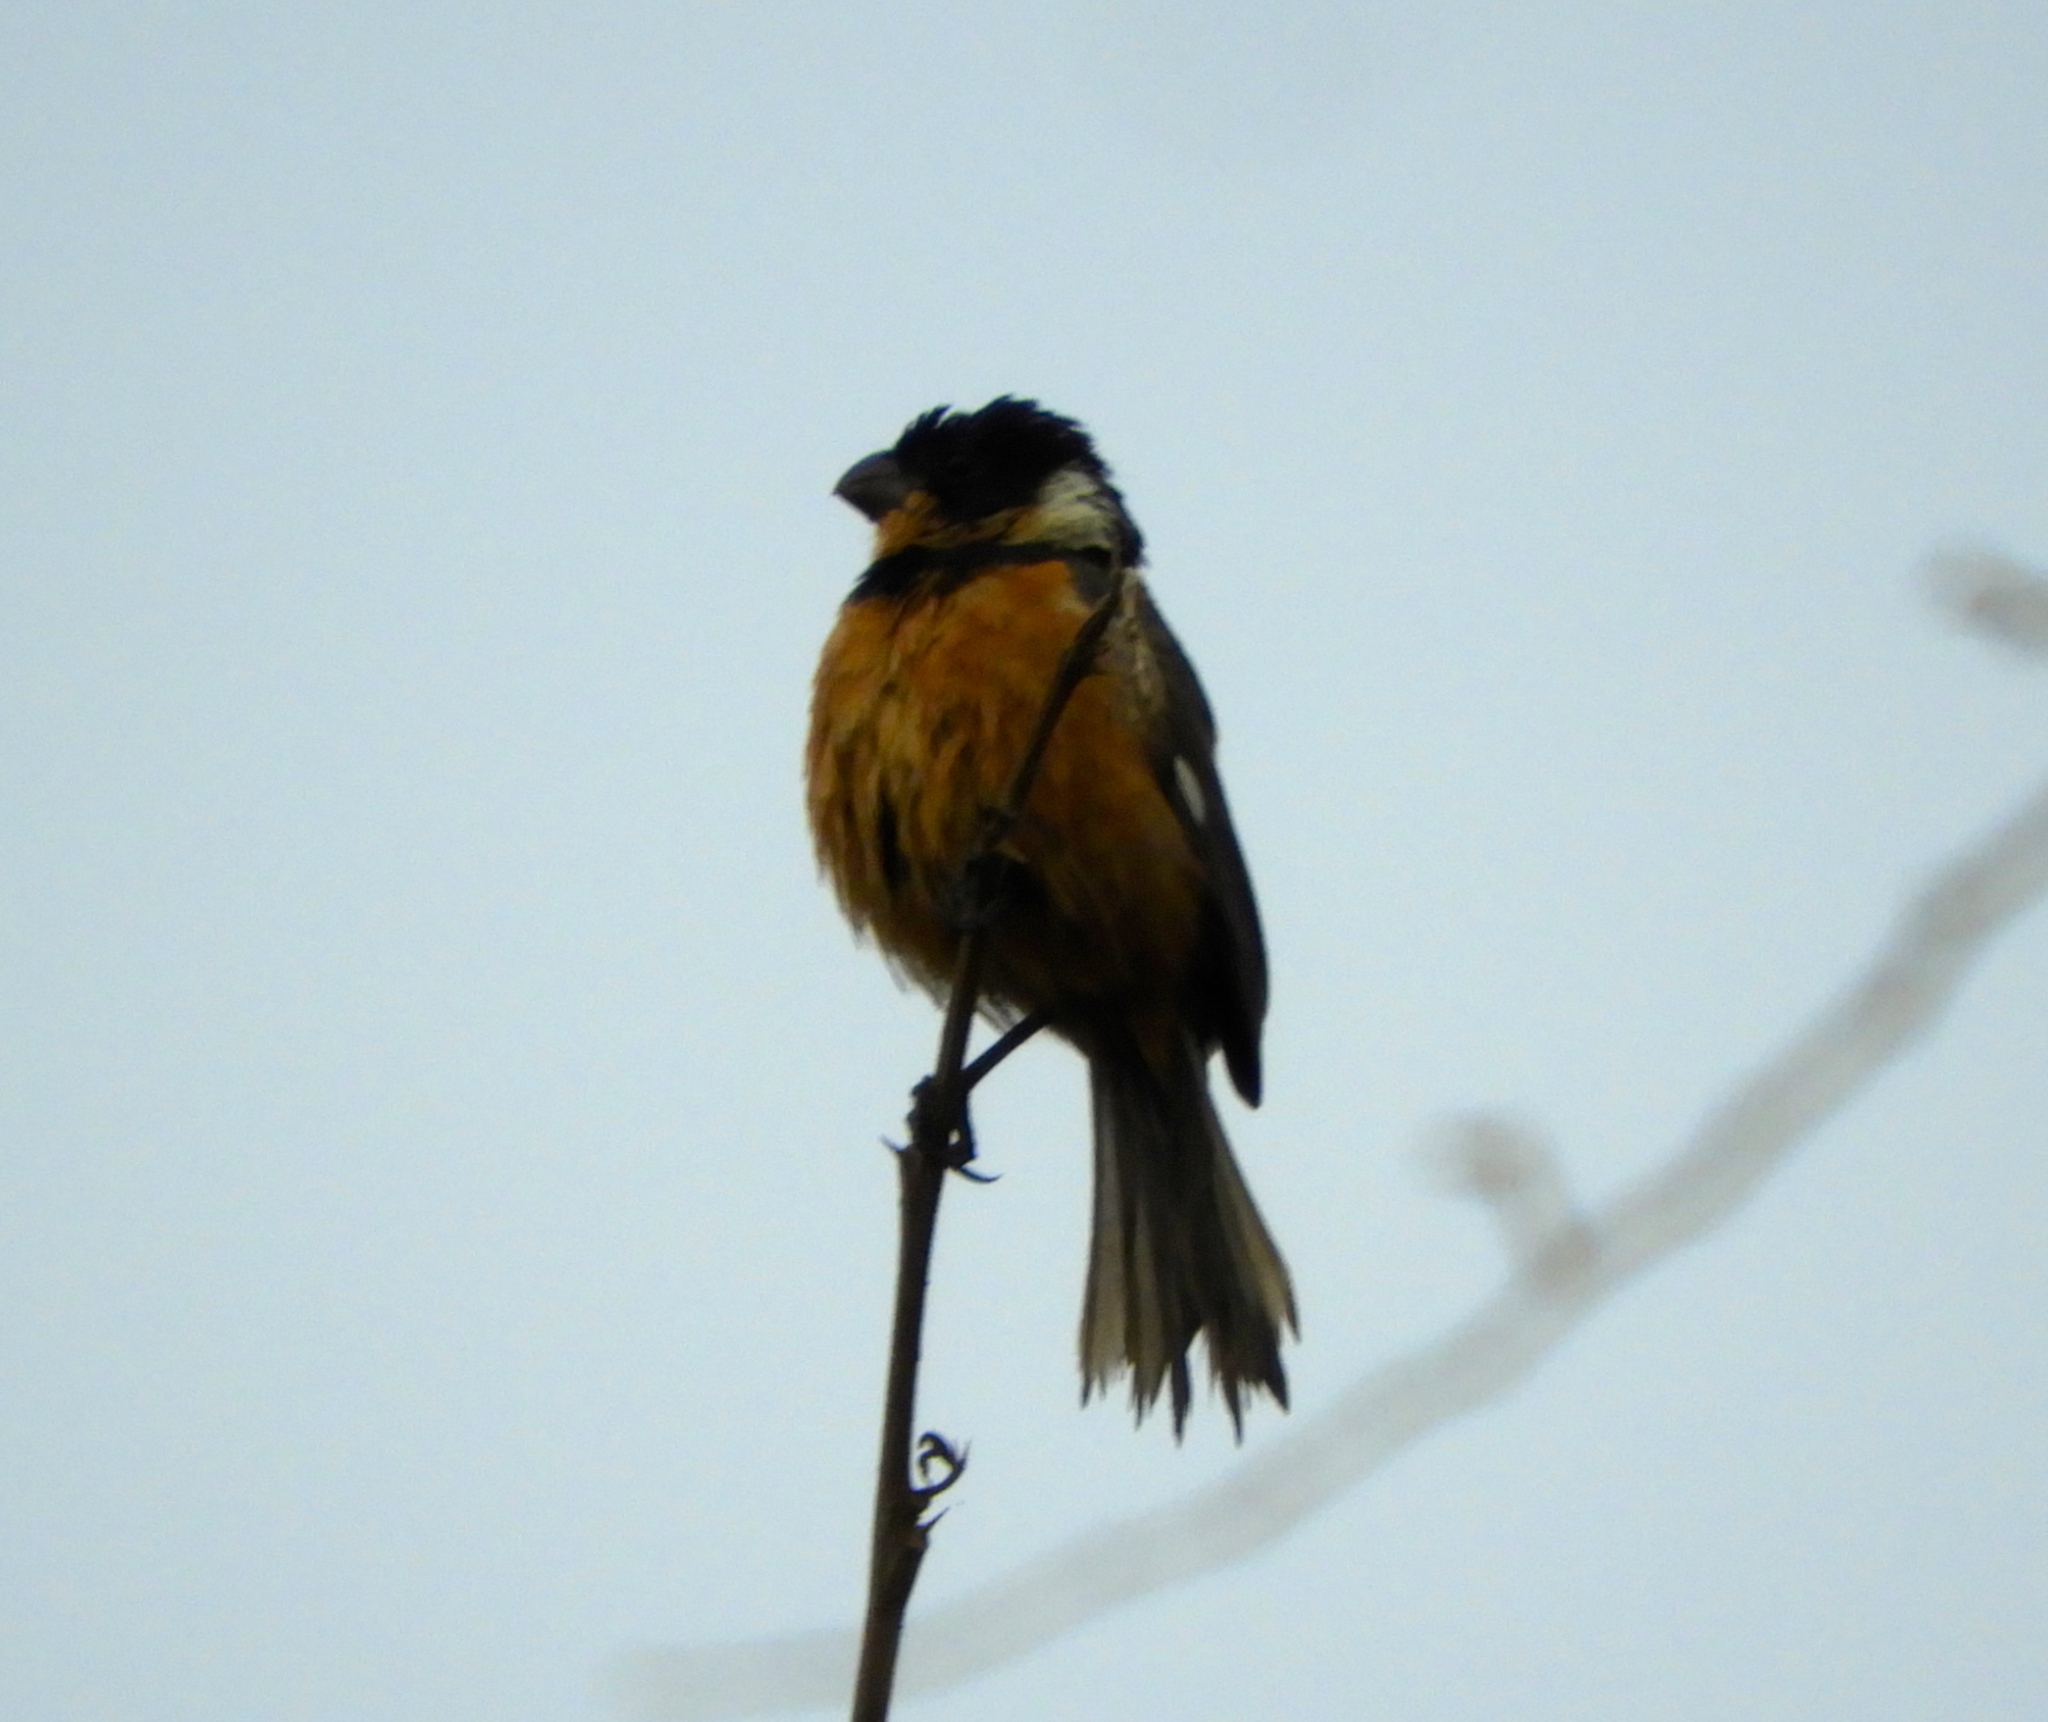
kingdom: Animalia
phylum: Chordata
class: Aves
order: Passeriformes
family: Thraupidae
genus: Sporophila
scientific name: Sporophila torqueola
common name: White-collared seedeater
